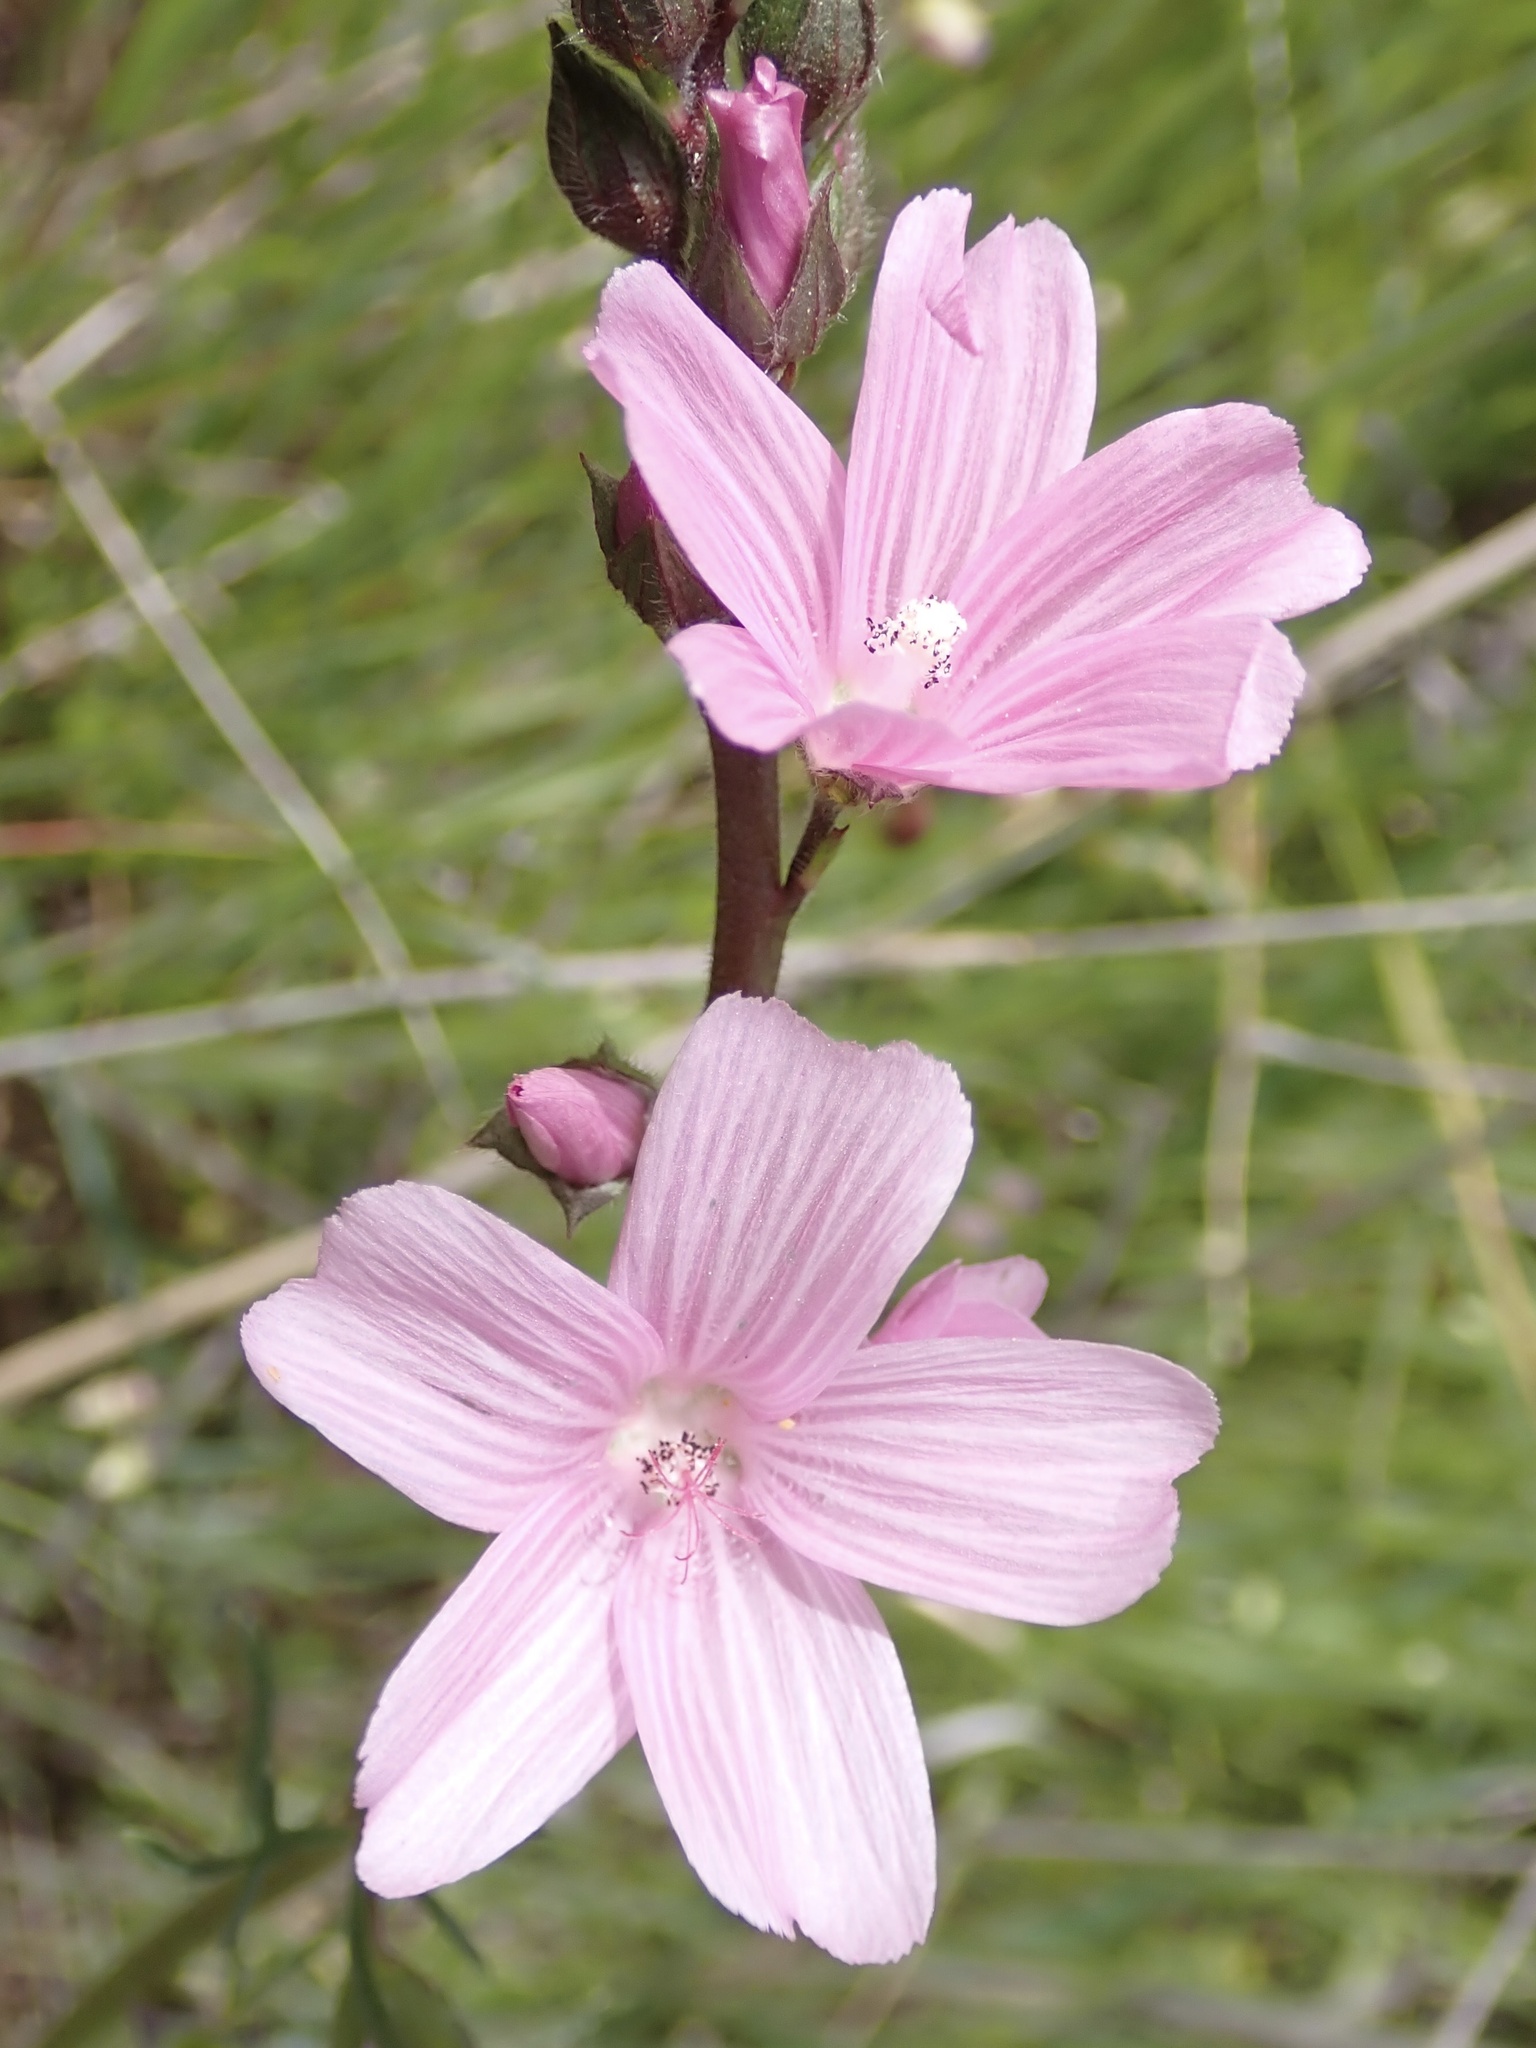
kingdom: Plantae
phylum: Tracheophyta
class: Magnoliopsida
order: Malvales
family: Malvaceae
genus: Sidalcea
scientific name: Sidalcea malviflora
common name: Greek mallow
